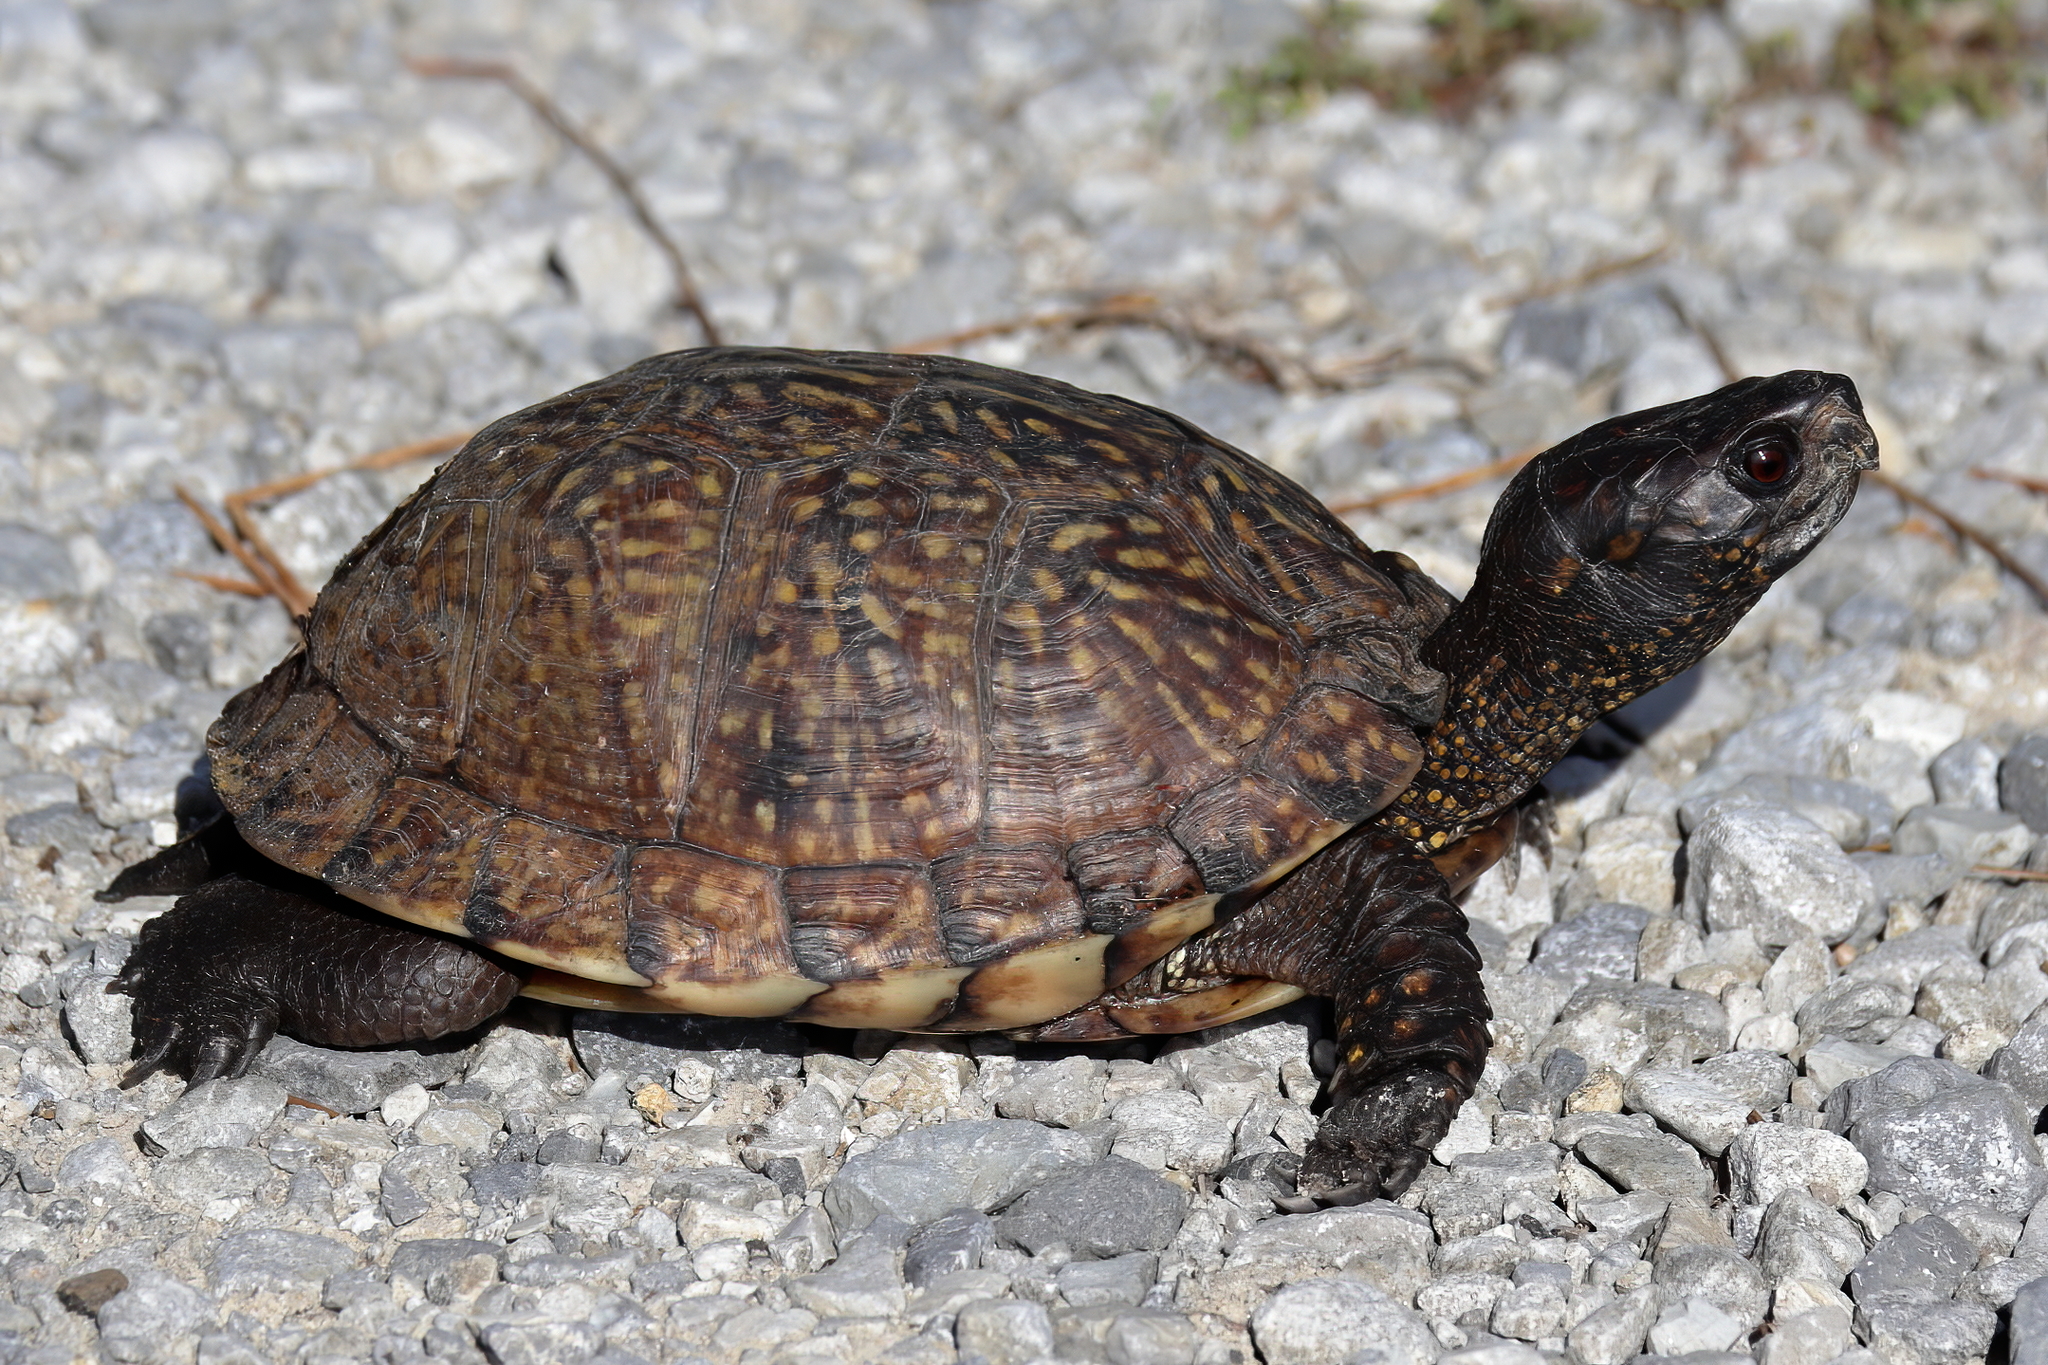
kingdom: Animalia
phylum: Chordata
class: Testudines
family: Emydidae
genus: Terrapene
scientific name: Terrapene carolina
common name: Common box turtle
